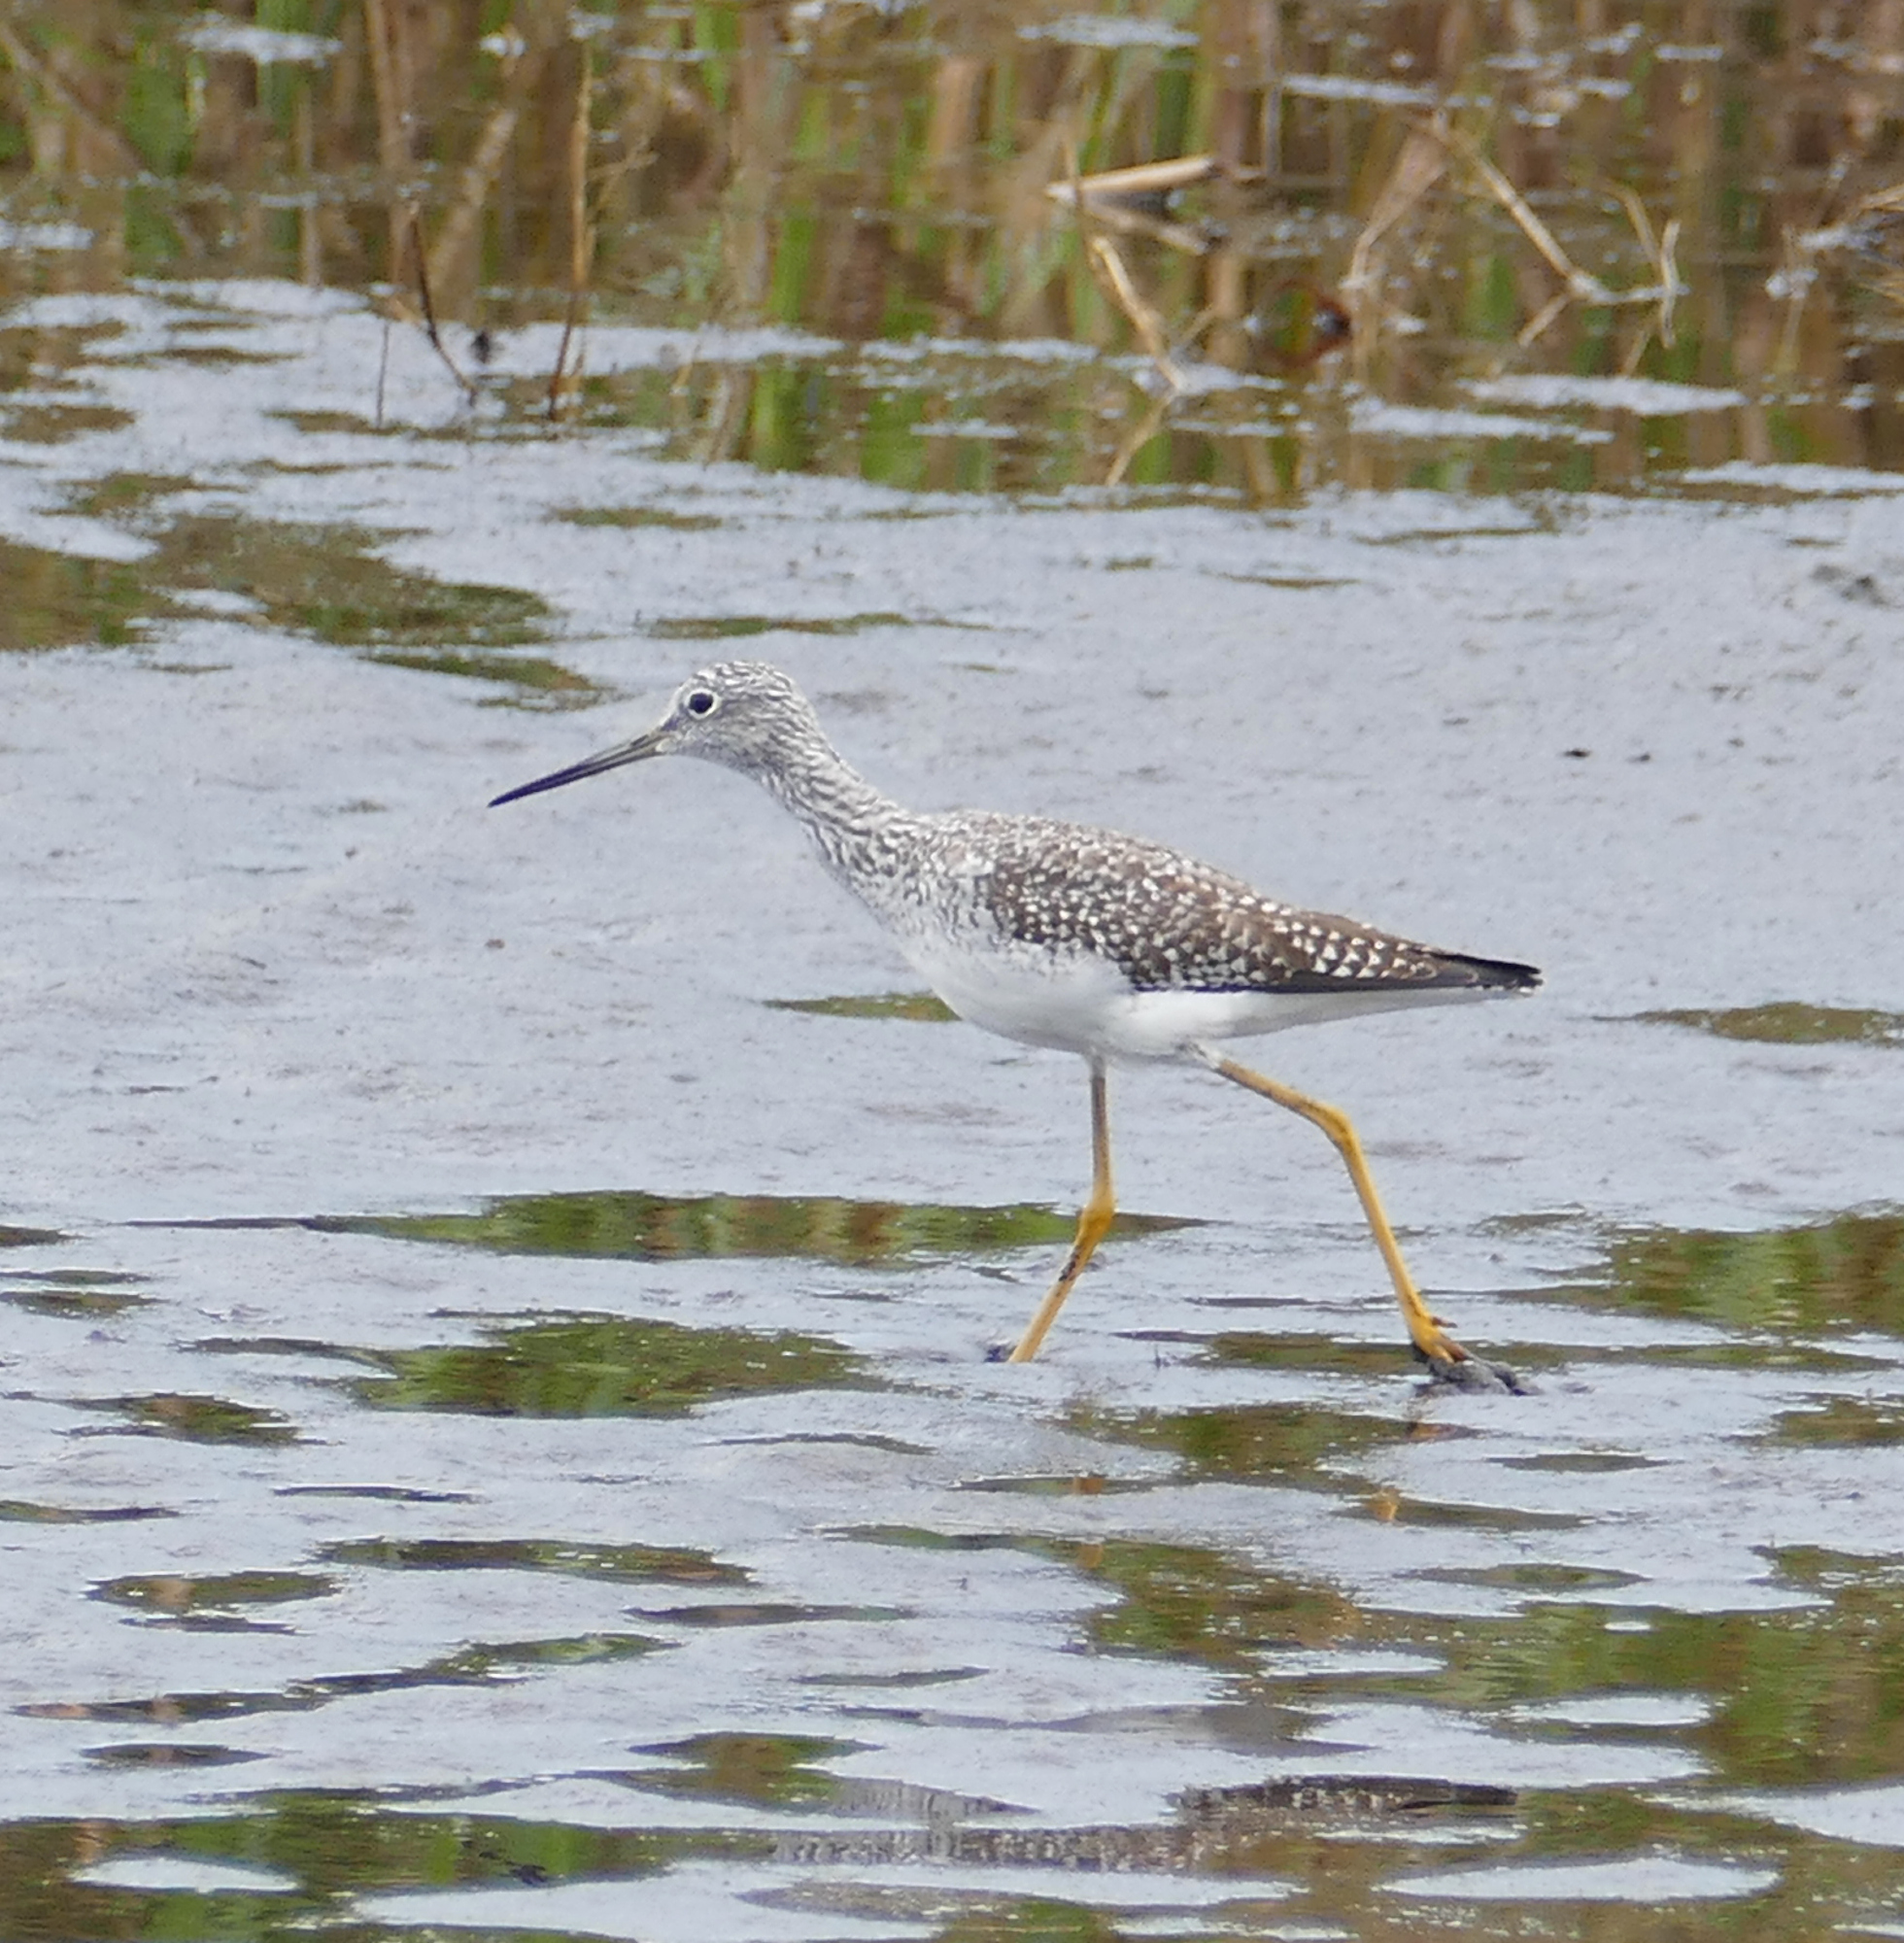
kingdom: Animalia
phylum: Chordata
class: Aves
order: Charadriiformes
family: Scolopacidae
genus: Tringa
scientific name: Tringa melanoleuca
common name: Greater yellowlegs
